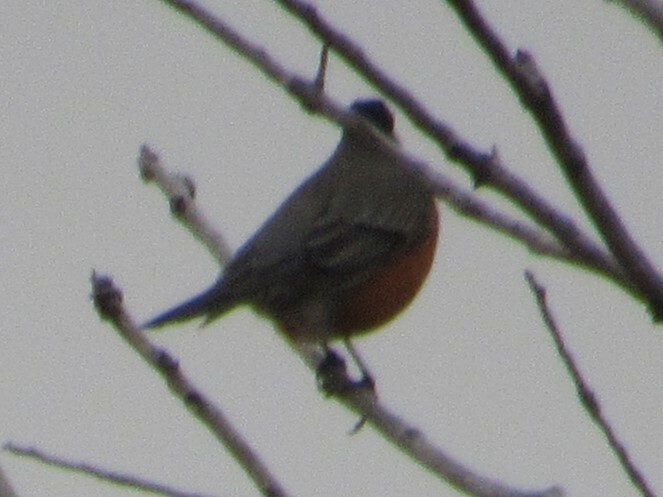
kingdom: Animalia
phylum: Chordata
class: Aves
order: Passeriformes
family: Turdidae
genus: Turdus
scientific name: Turdus migratorius
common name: American robin
